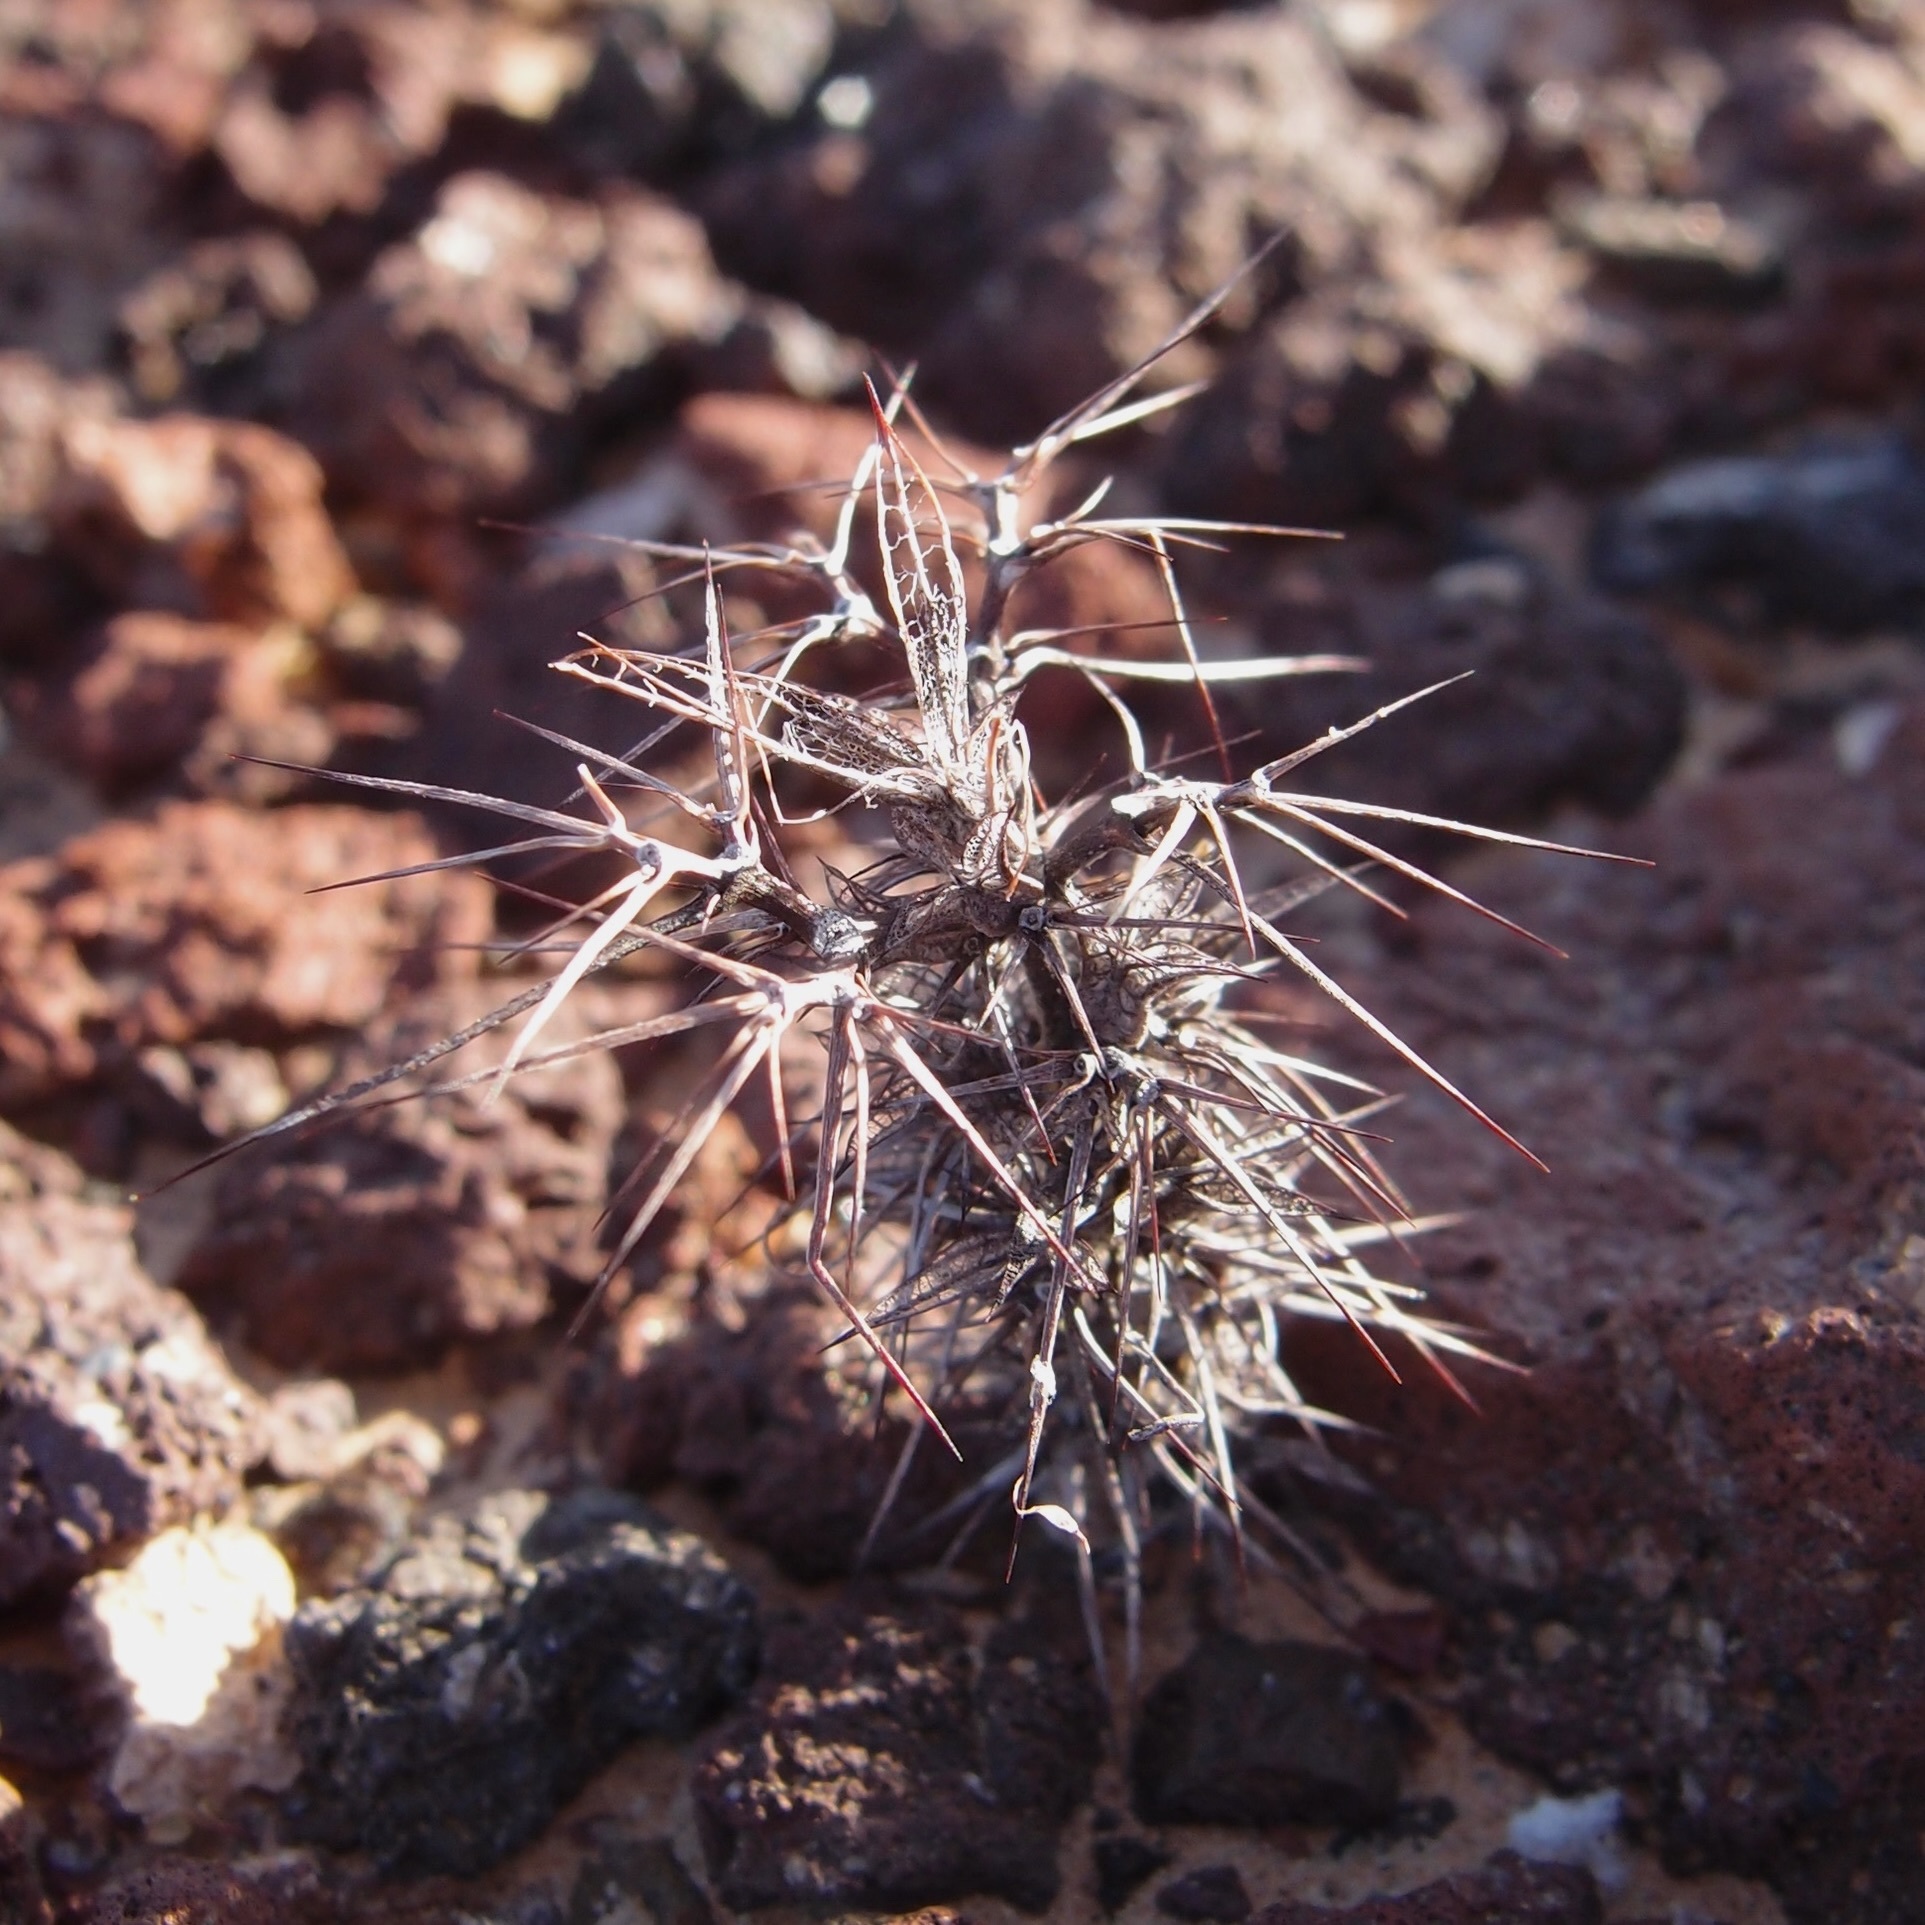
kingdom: Plantae
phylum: Tracheophyta
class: Magnoliopsida
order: Caryophyllales
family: Polygonaceae
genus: Chorizanthe
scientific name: Chorizanthe rigida
